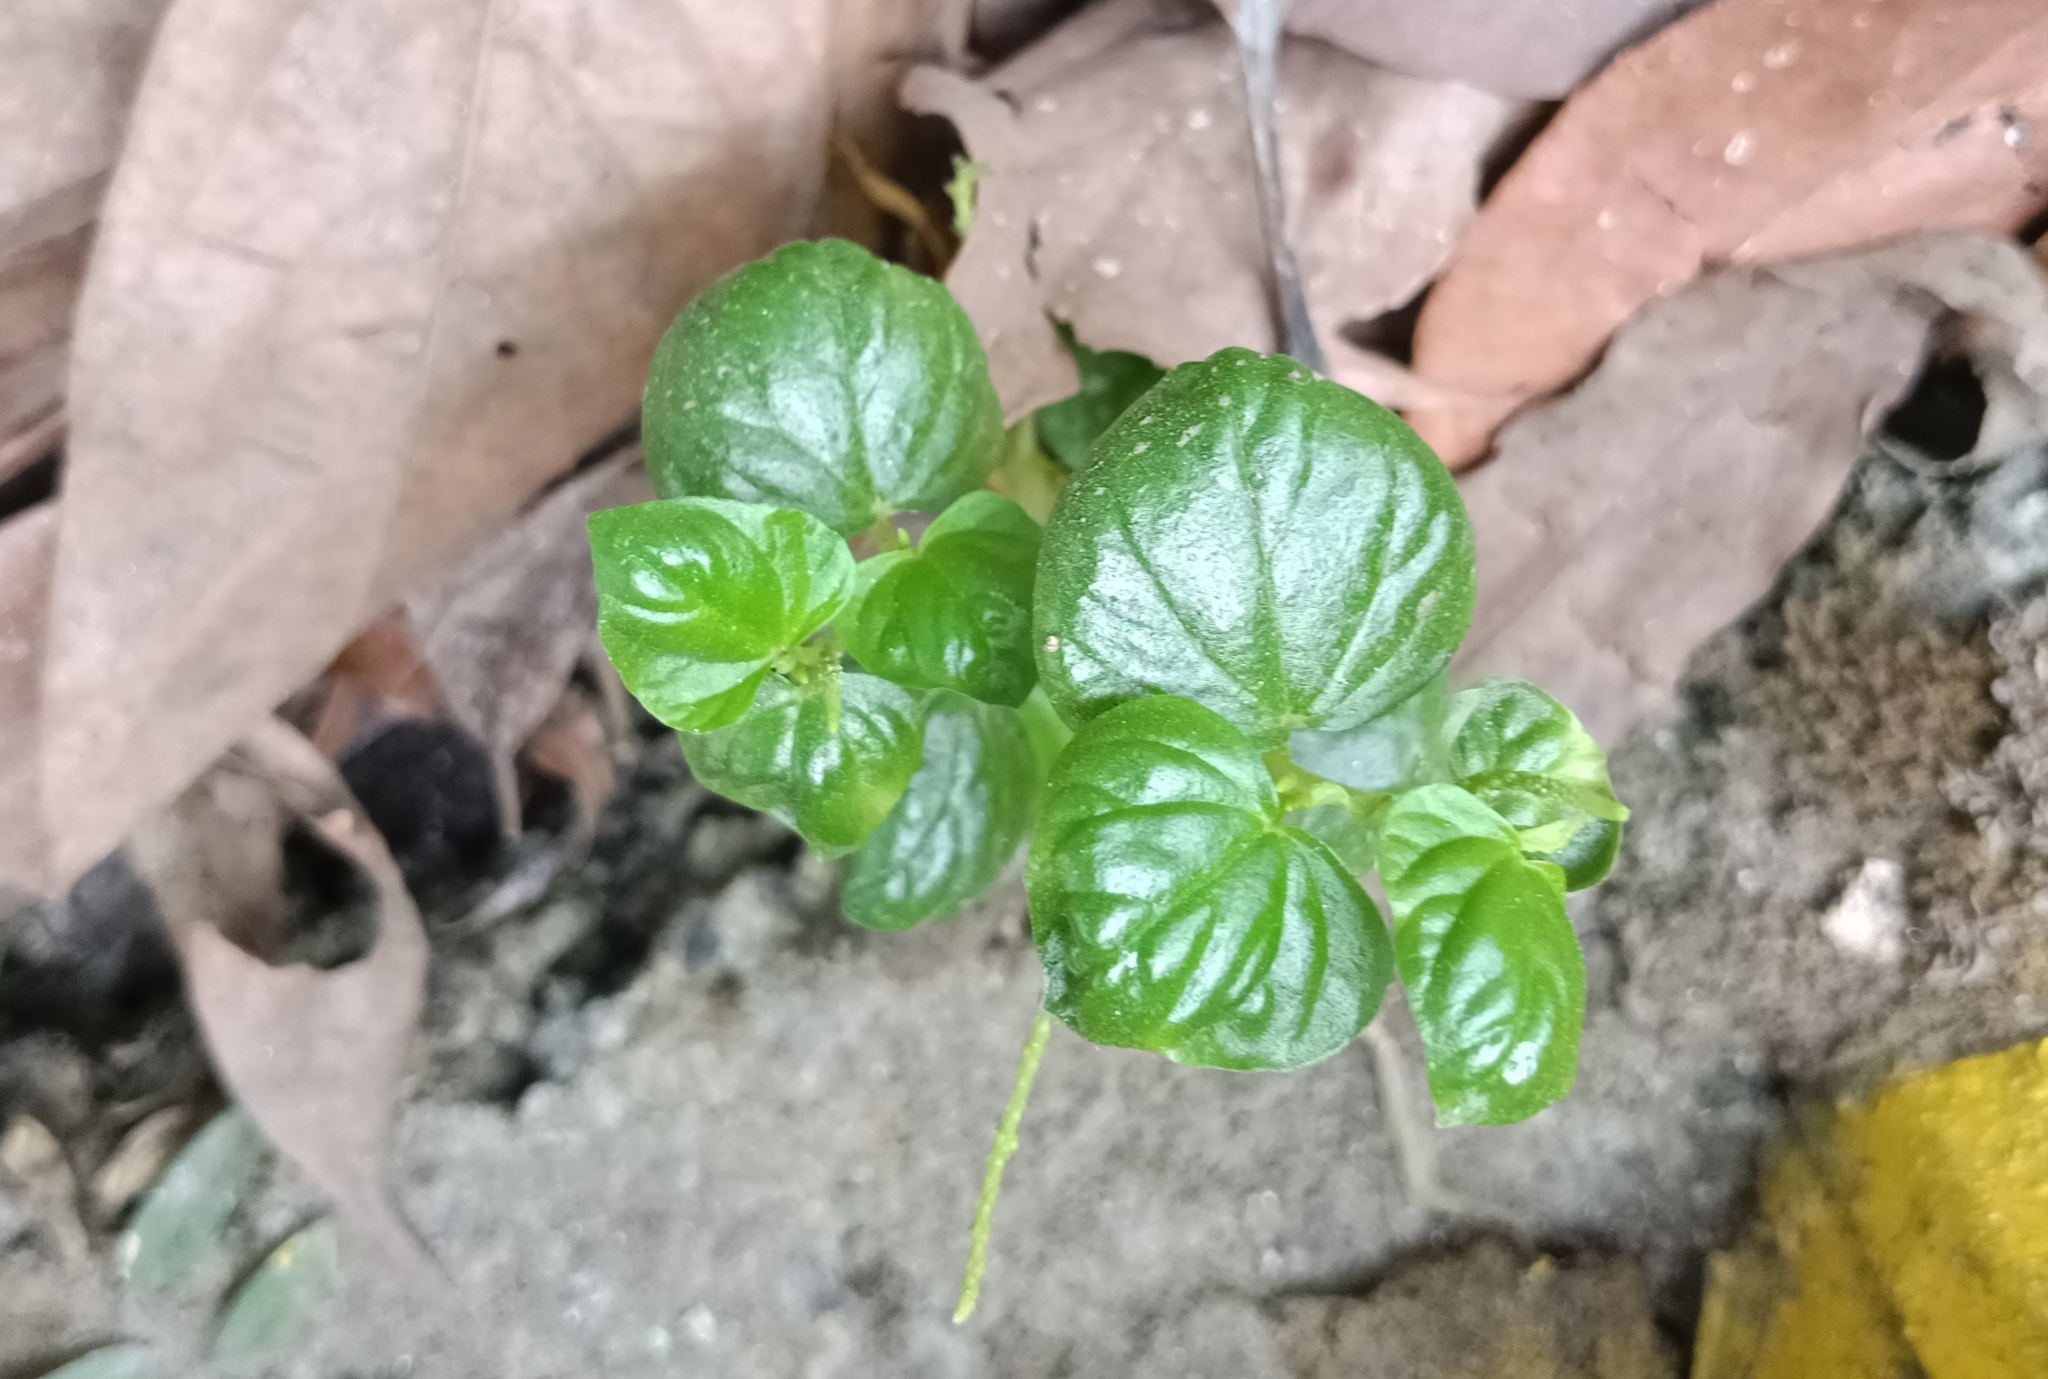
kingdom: Plantae
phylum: Tracheophyta
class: Magnoliopsida
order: Piperales
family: Piperaceae
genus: Peperomia
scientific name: Peperomia pellucida
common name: Man to man
